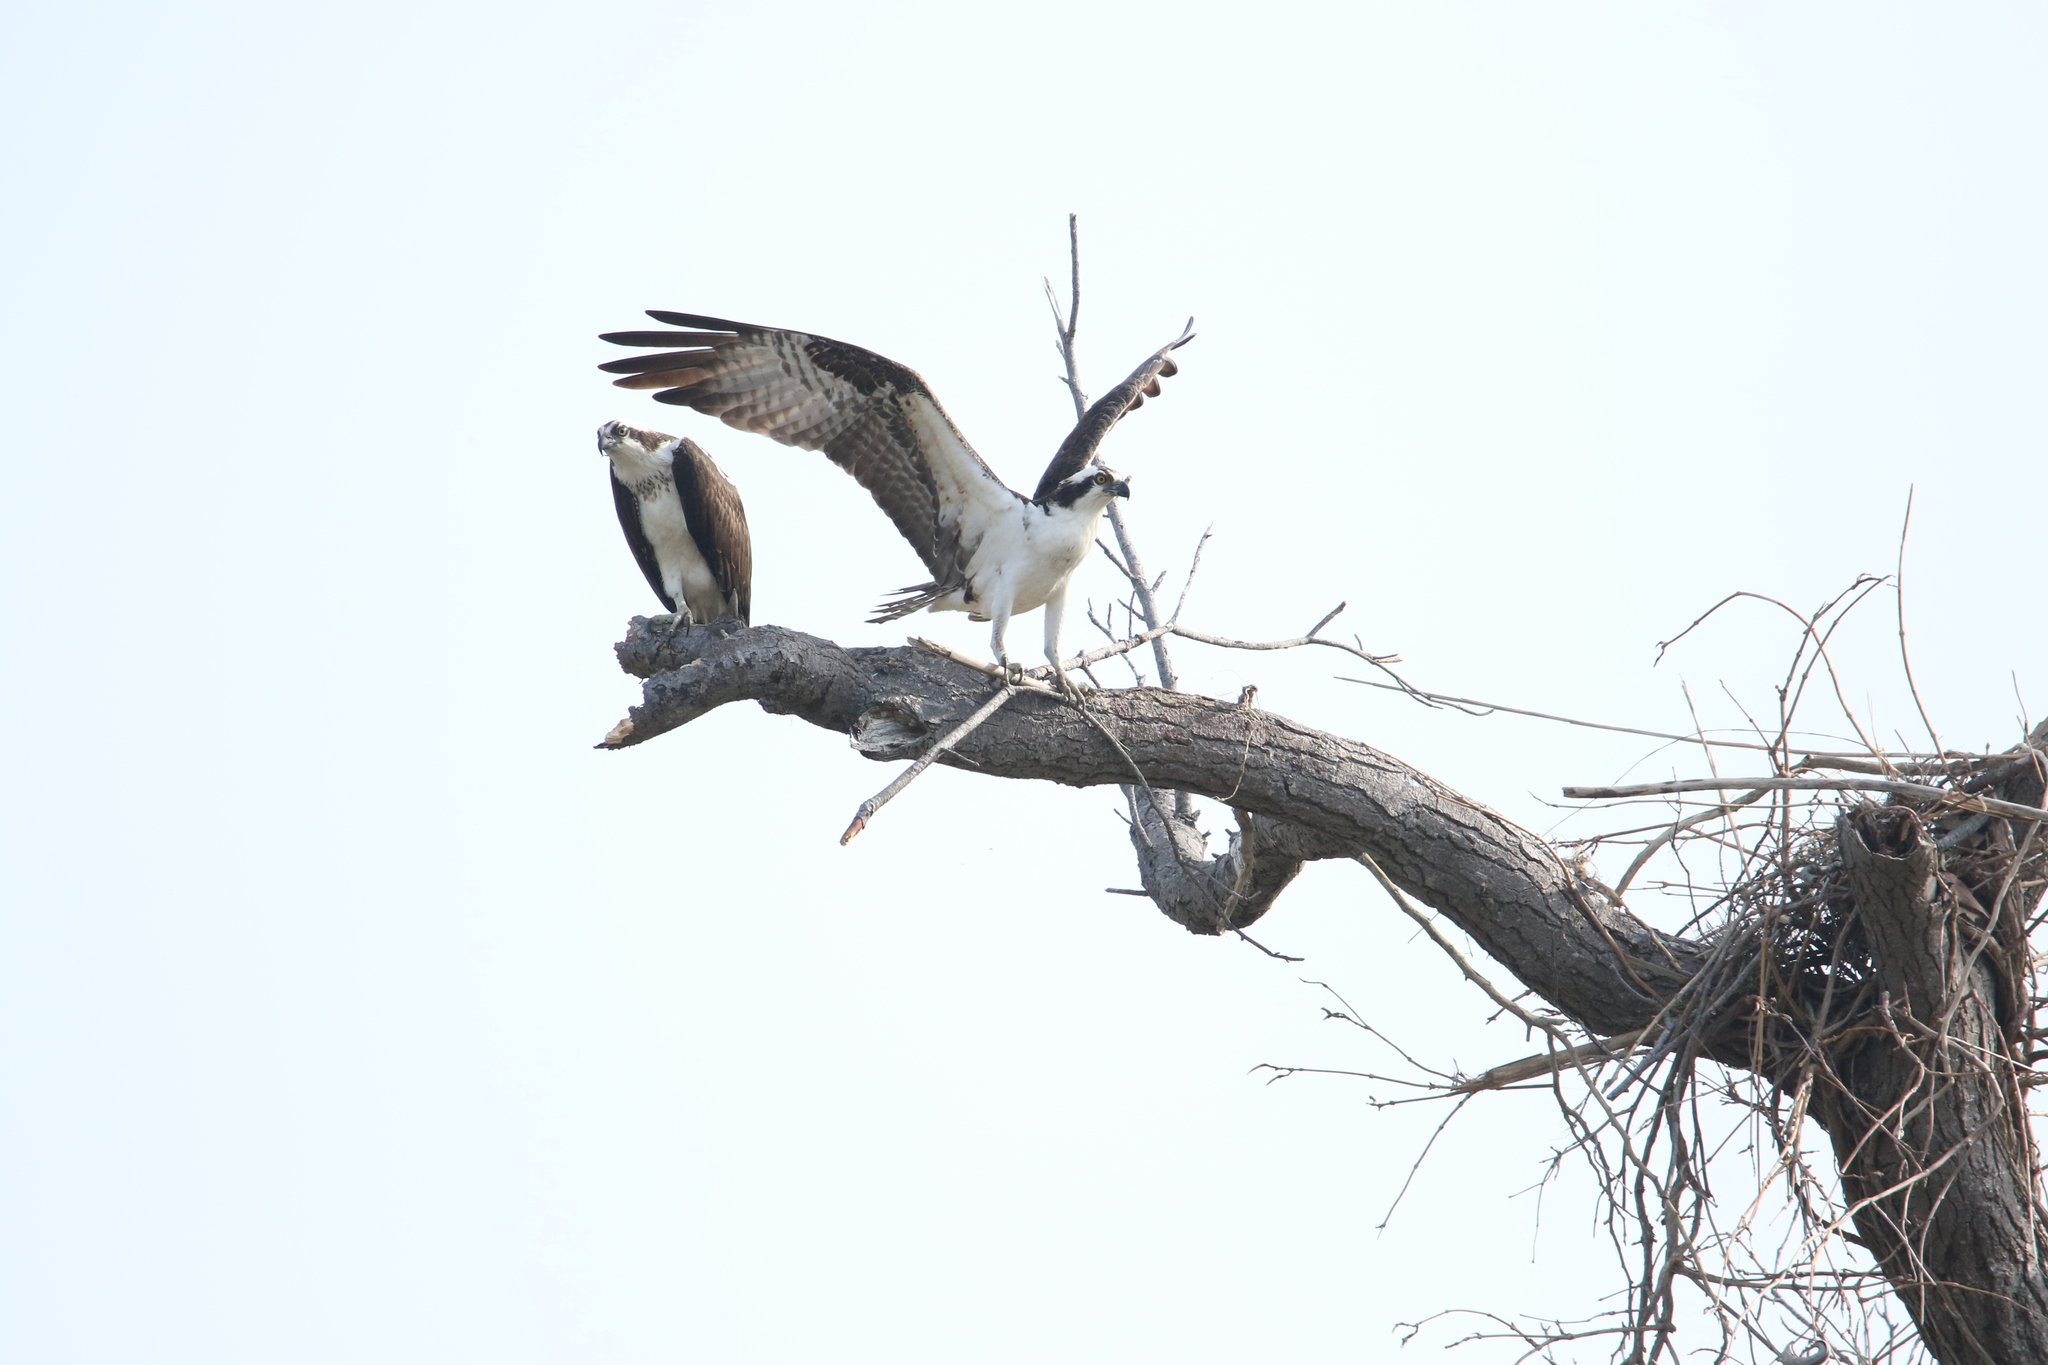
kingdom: Animalia
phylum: Chordata
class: Aves
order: Accipitriformes
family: Pandionidae
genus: Pandion
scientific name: Pandion haliaetus
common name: Osprey
